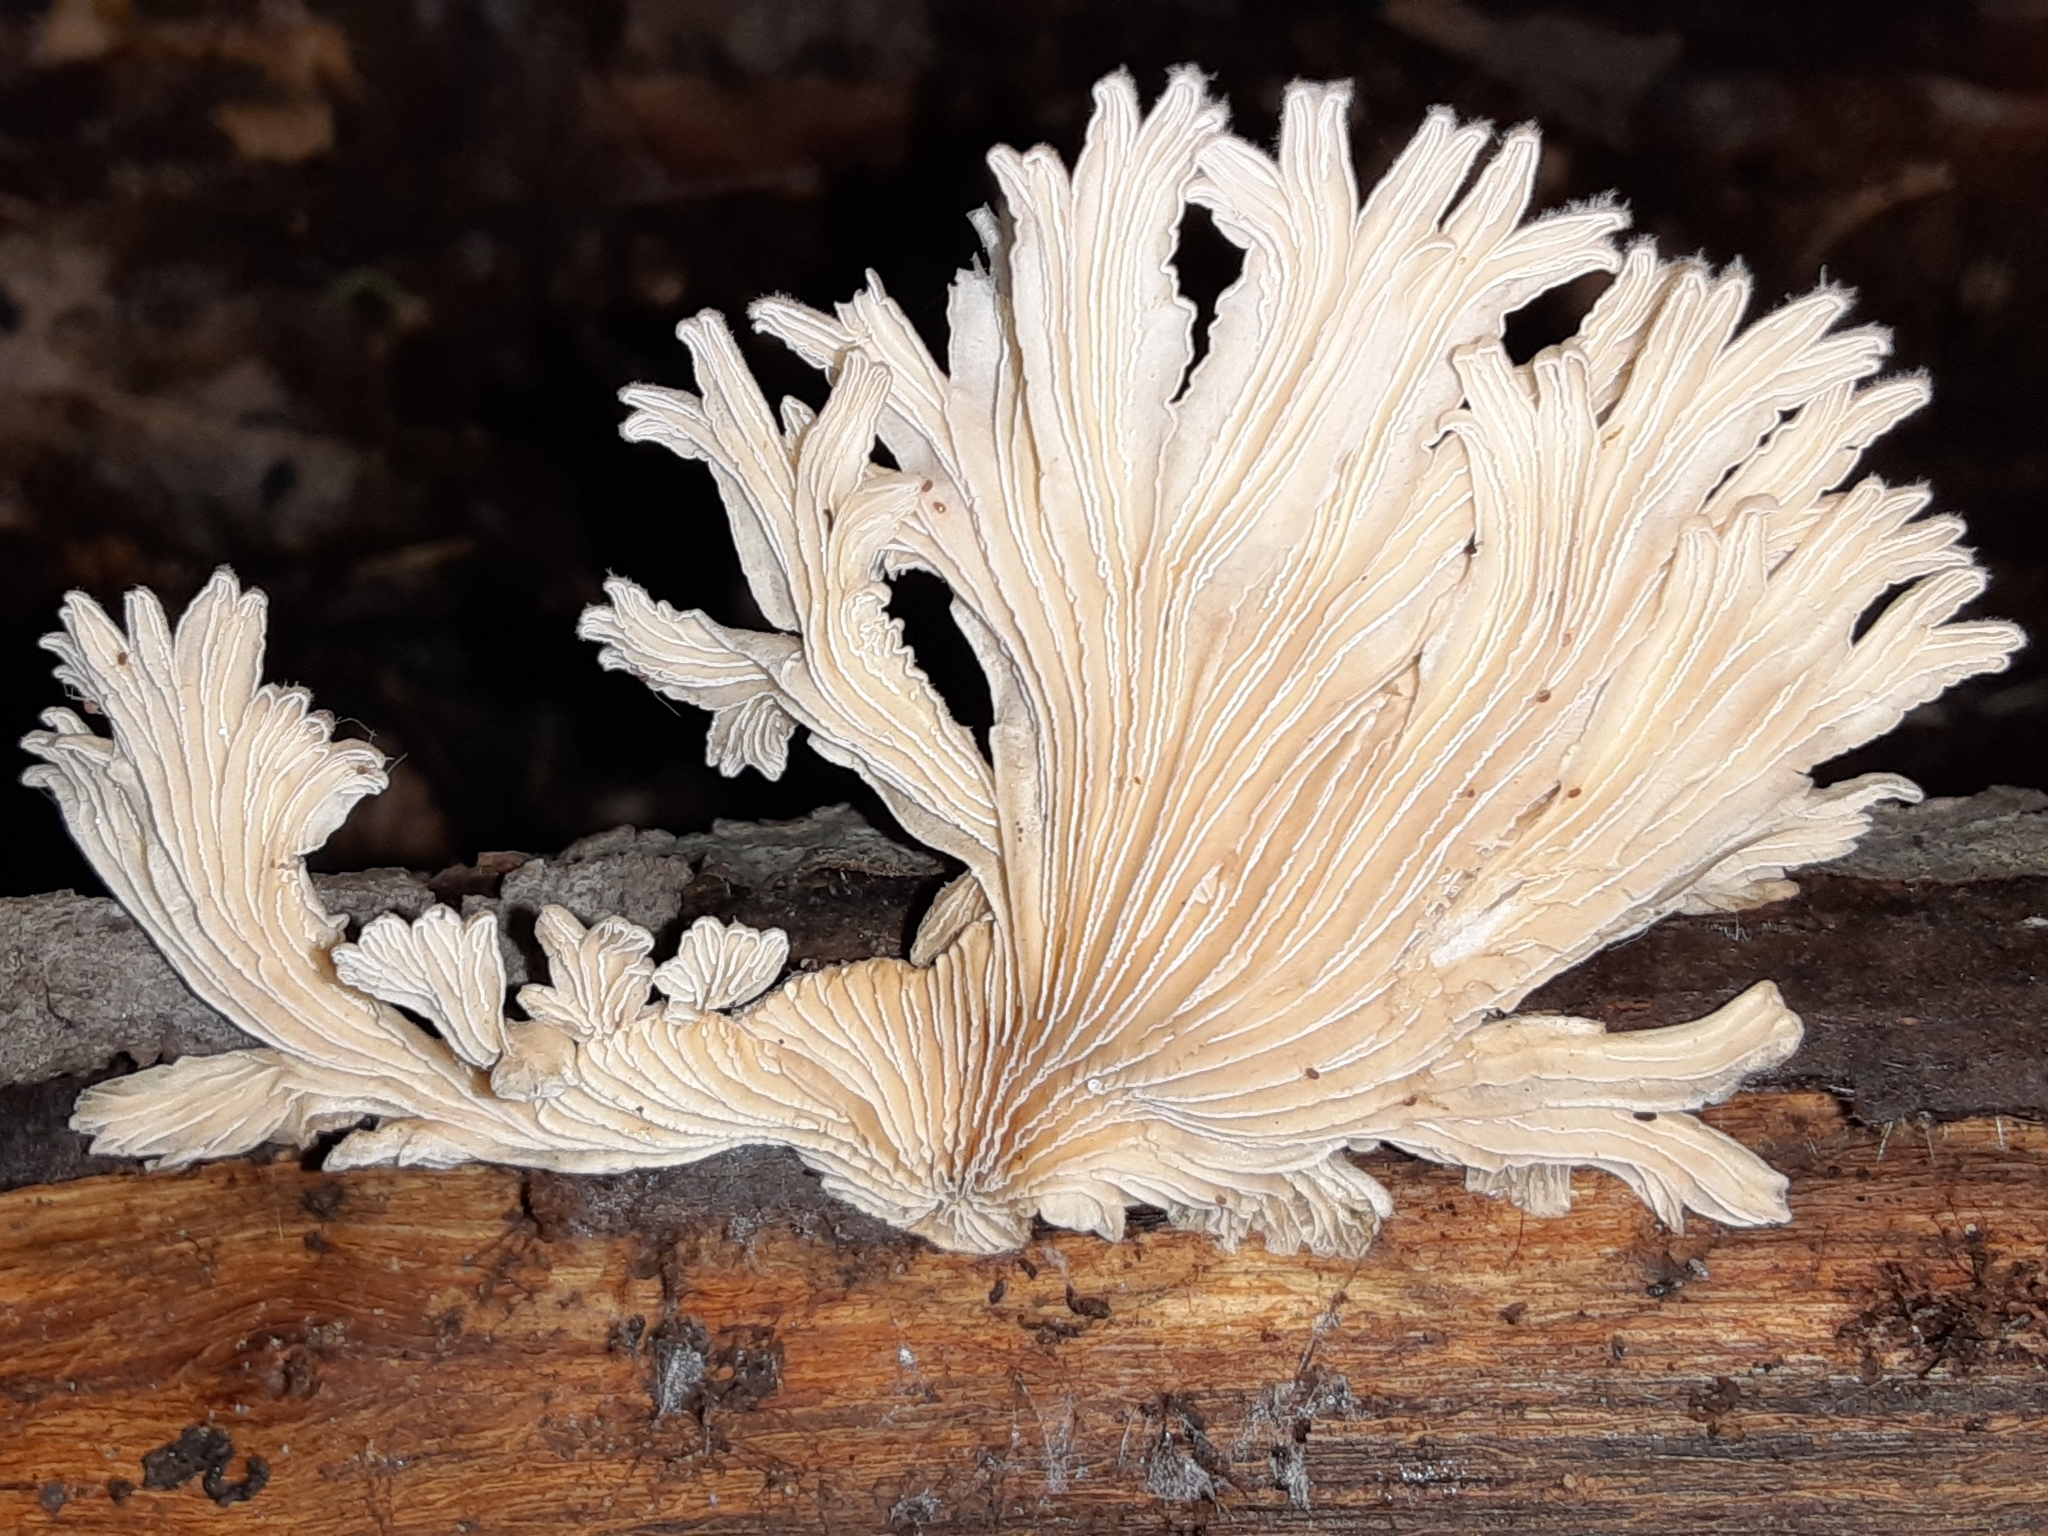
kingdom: Fungi
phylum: Basidiomycota
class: Agaricomycetes
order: Agaricales
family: Schizophyllaceae
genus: Schizophyllum
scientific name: Schizophyllum commune
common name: Common porecrust
